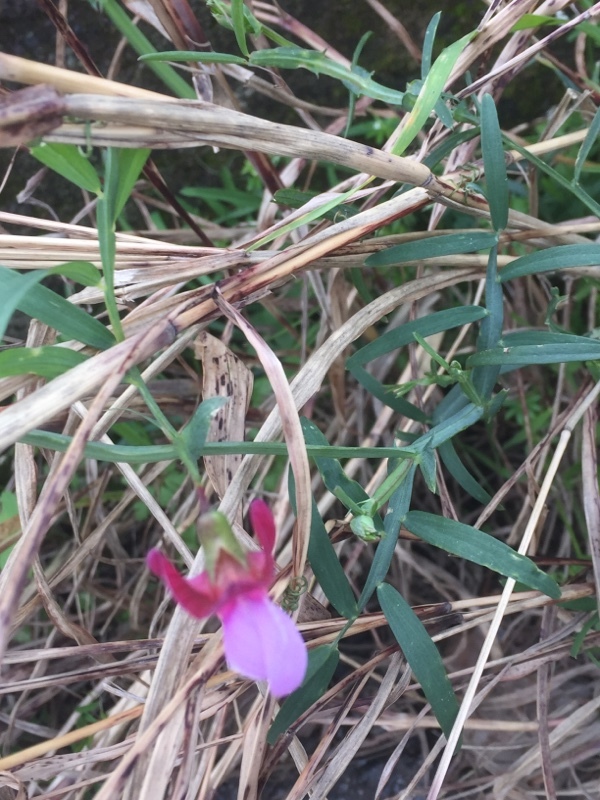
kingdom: Plantae
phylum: Tracheophyta
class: Magnoliopsida
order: Fabales
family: Fabaceae
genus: Lathyrus
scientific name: Lathyrus clymenum
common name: Spanish vetchling
